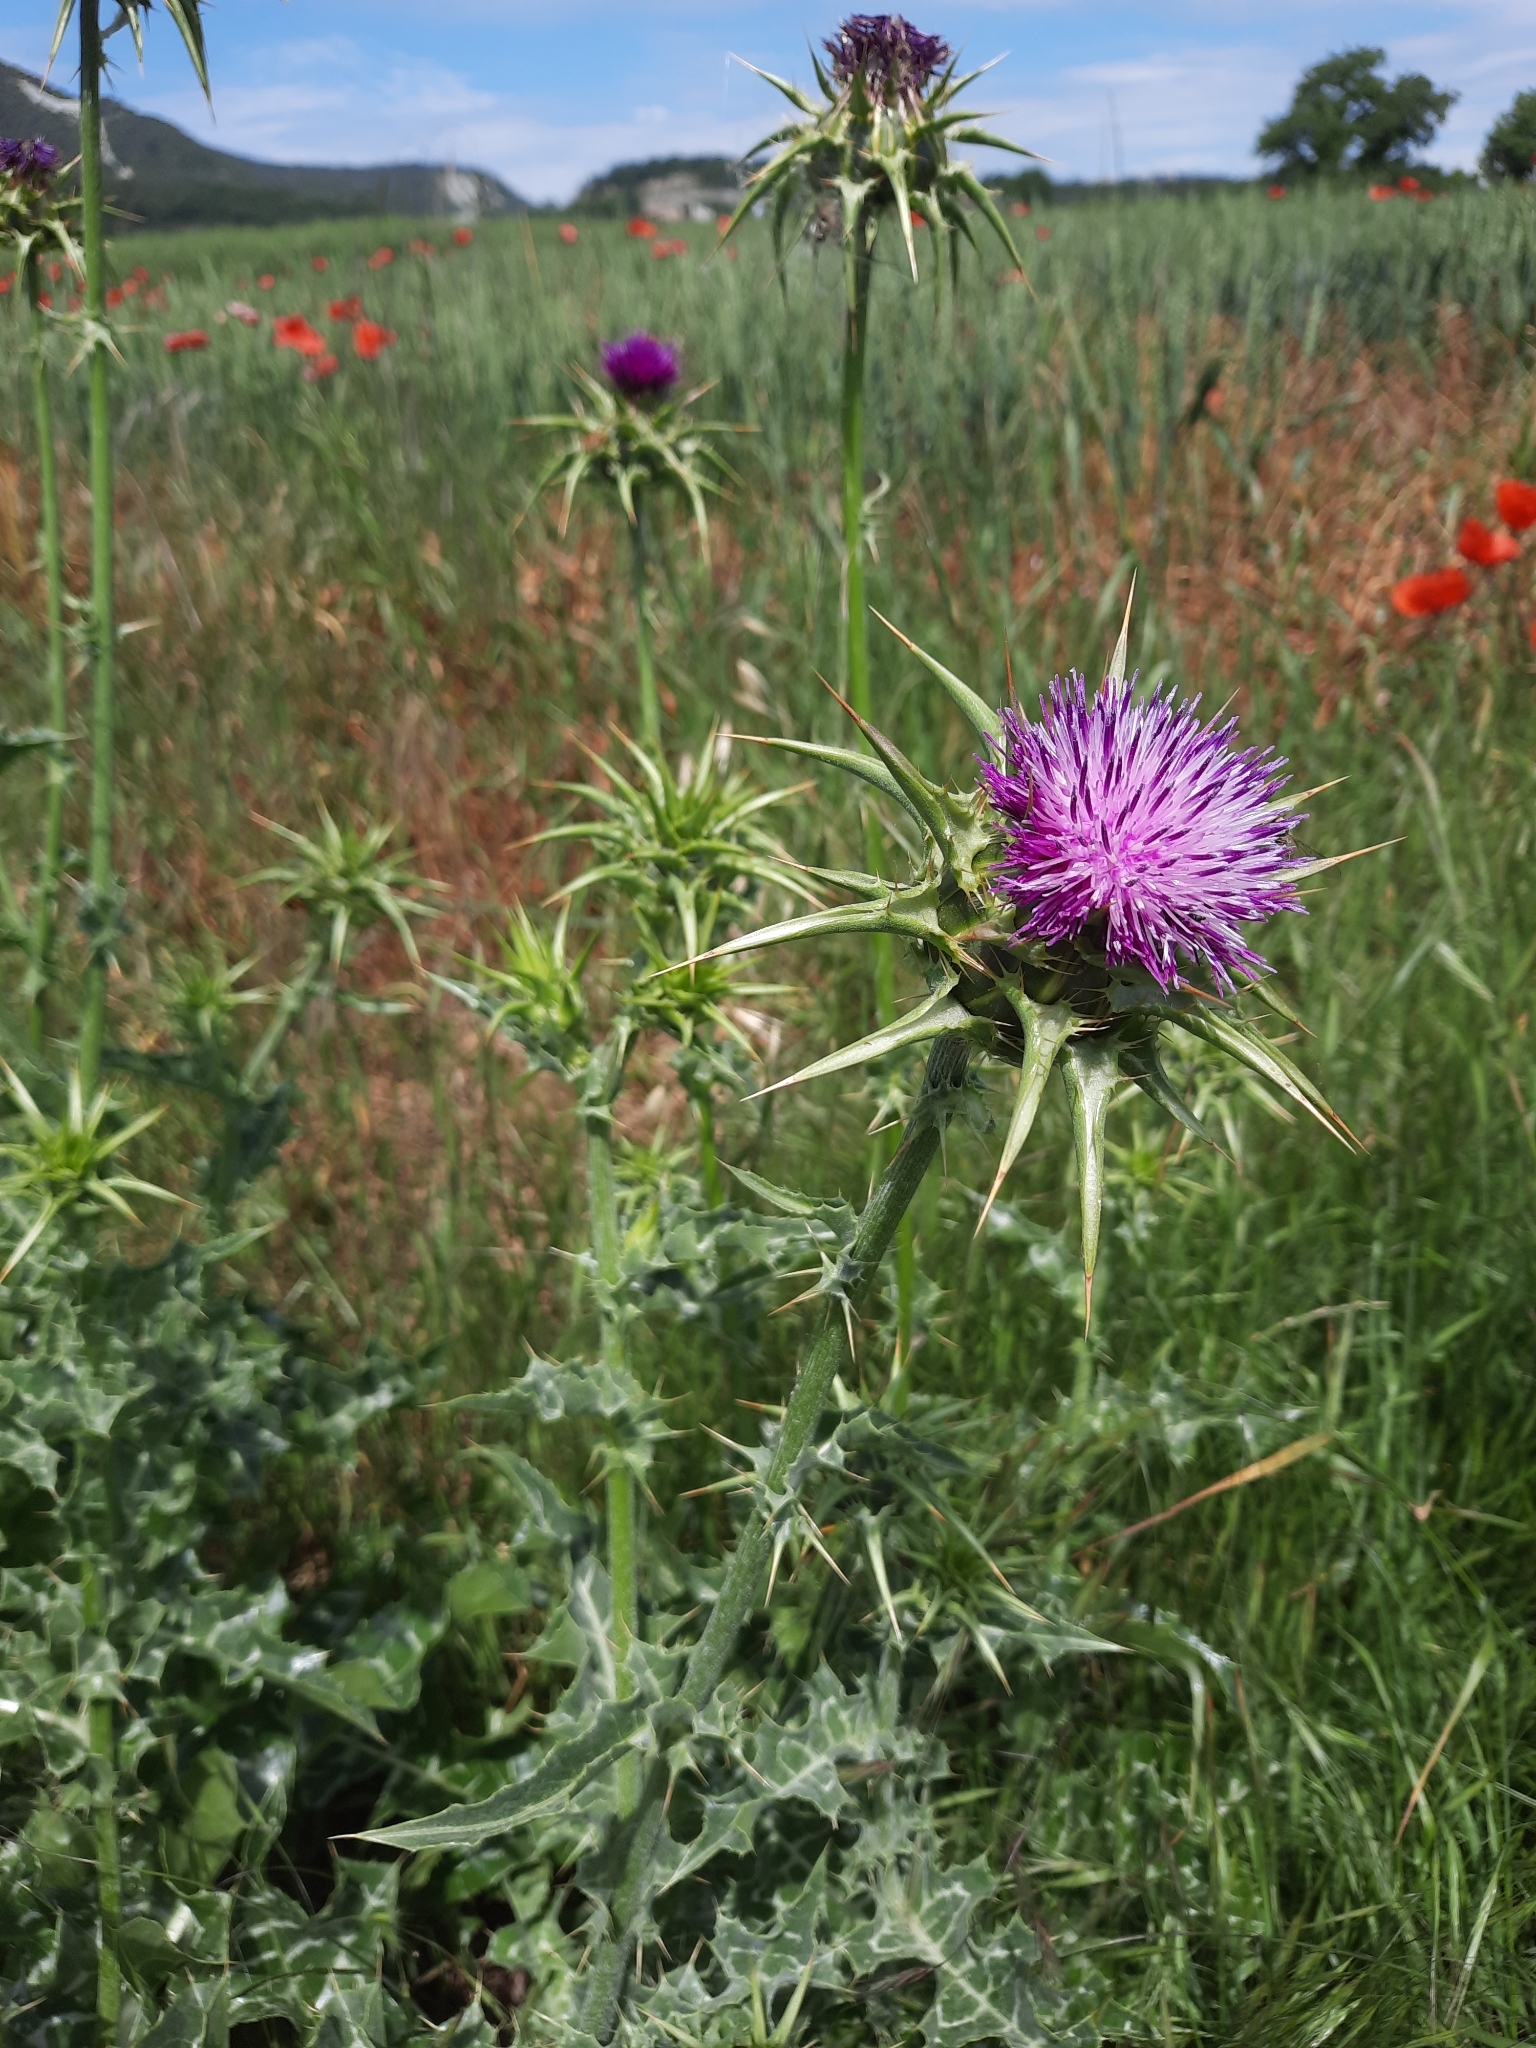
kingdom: Plantae
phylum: Tracheophyta
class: Magnoliopsida
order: Asterales
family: Asteraceae
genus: Silybum
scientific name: Silybum marianum
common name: Milk thistle
